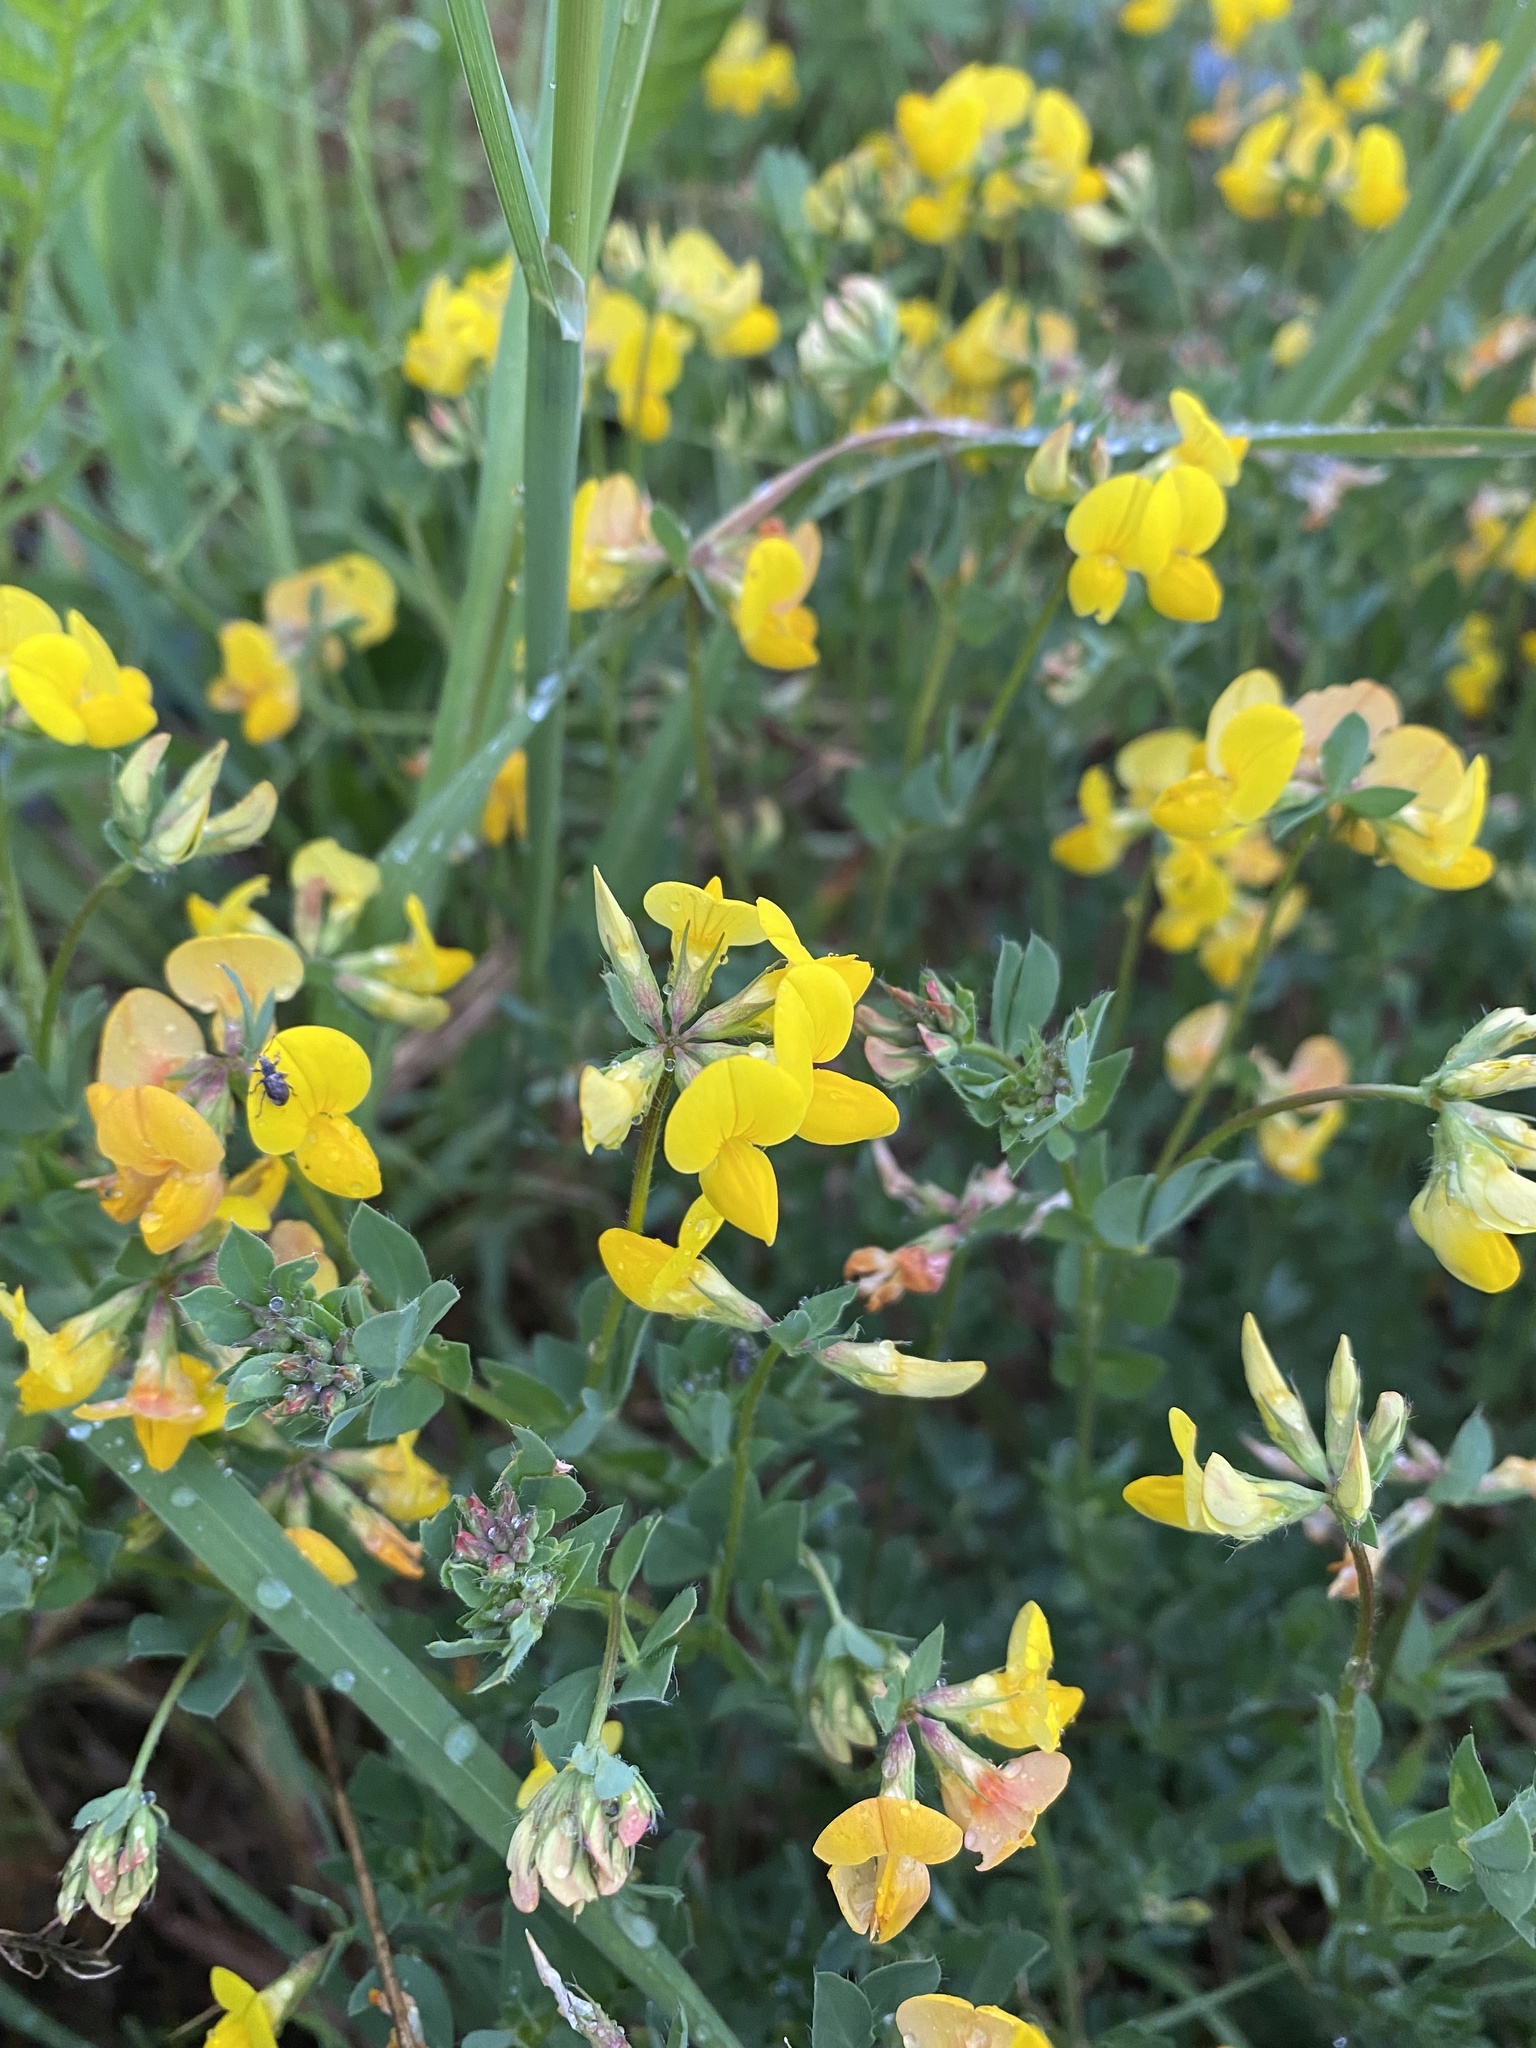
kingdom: Plantae
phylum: Tracheophyta
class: Magnoliopsida
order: Fabales
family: Fabaceae
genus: Lotus
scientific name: Lotus corniculatus
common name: Common bird's-foot-trefoil
